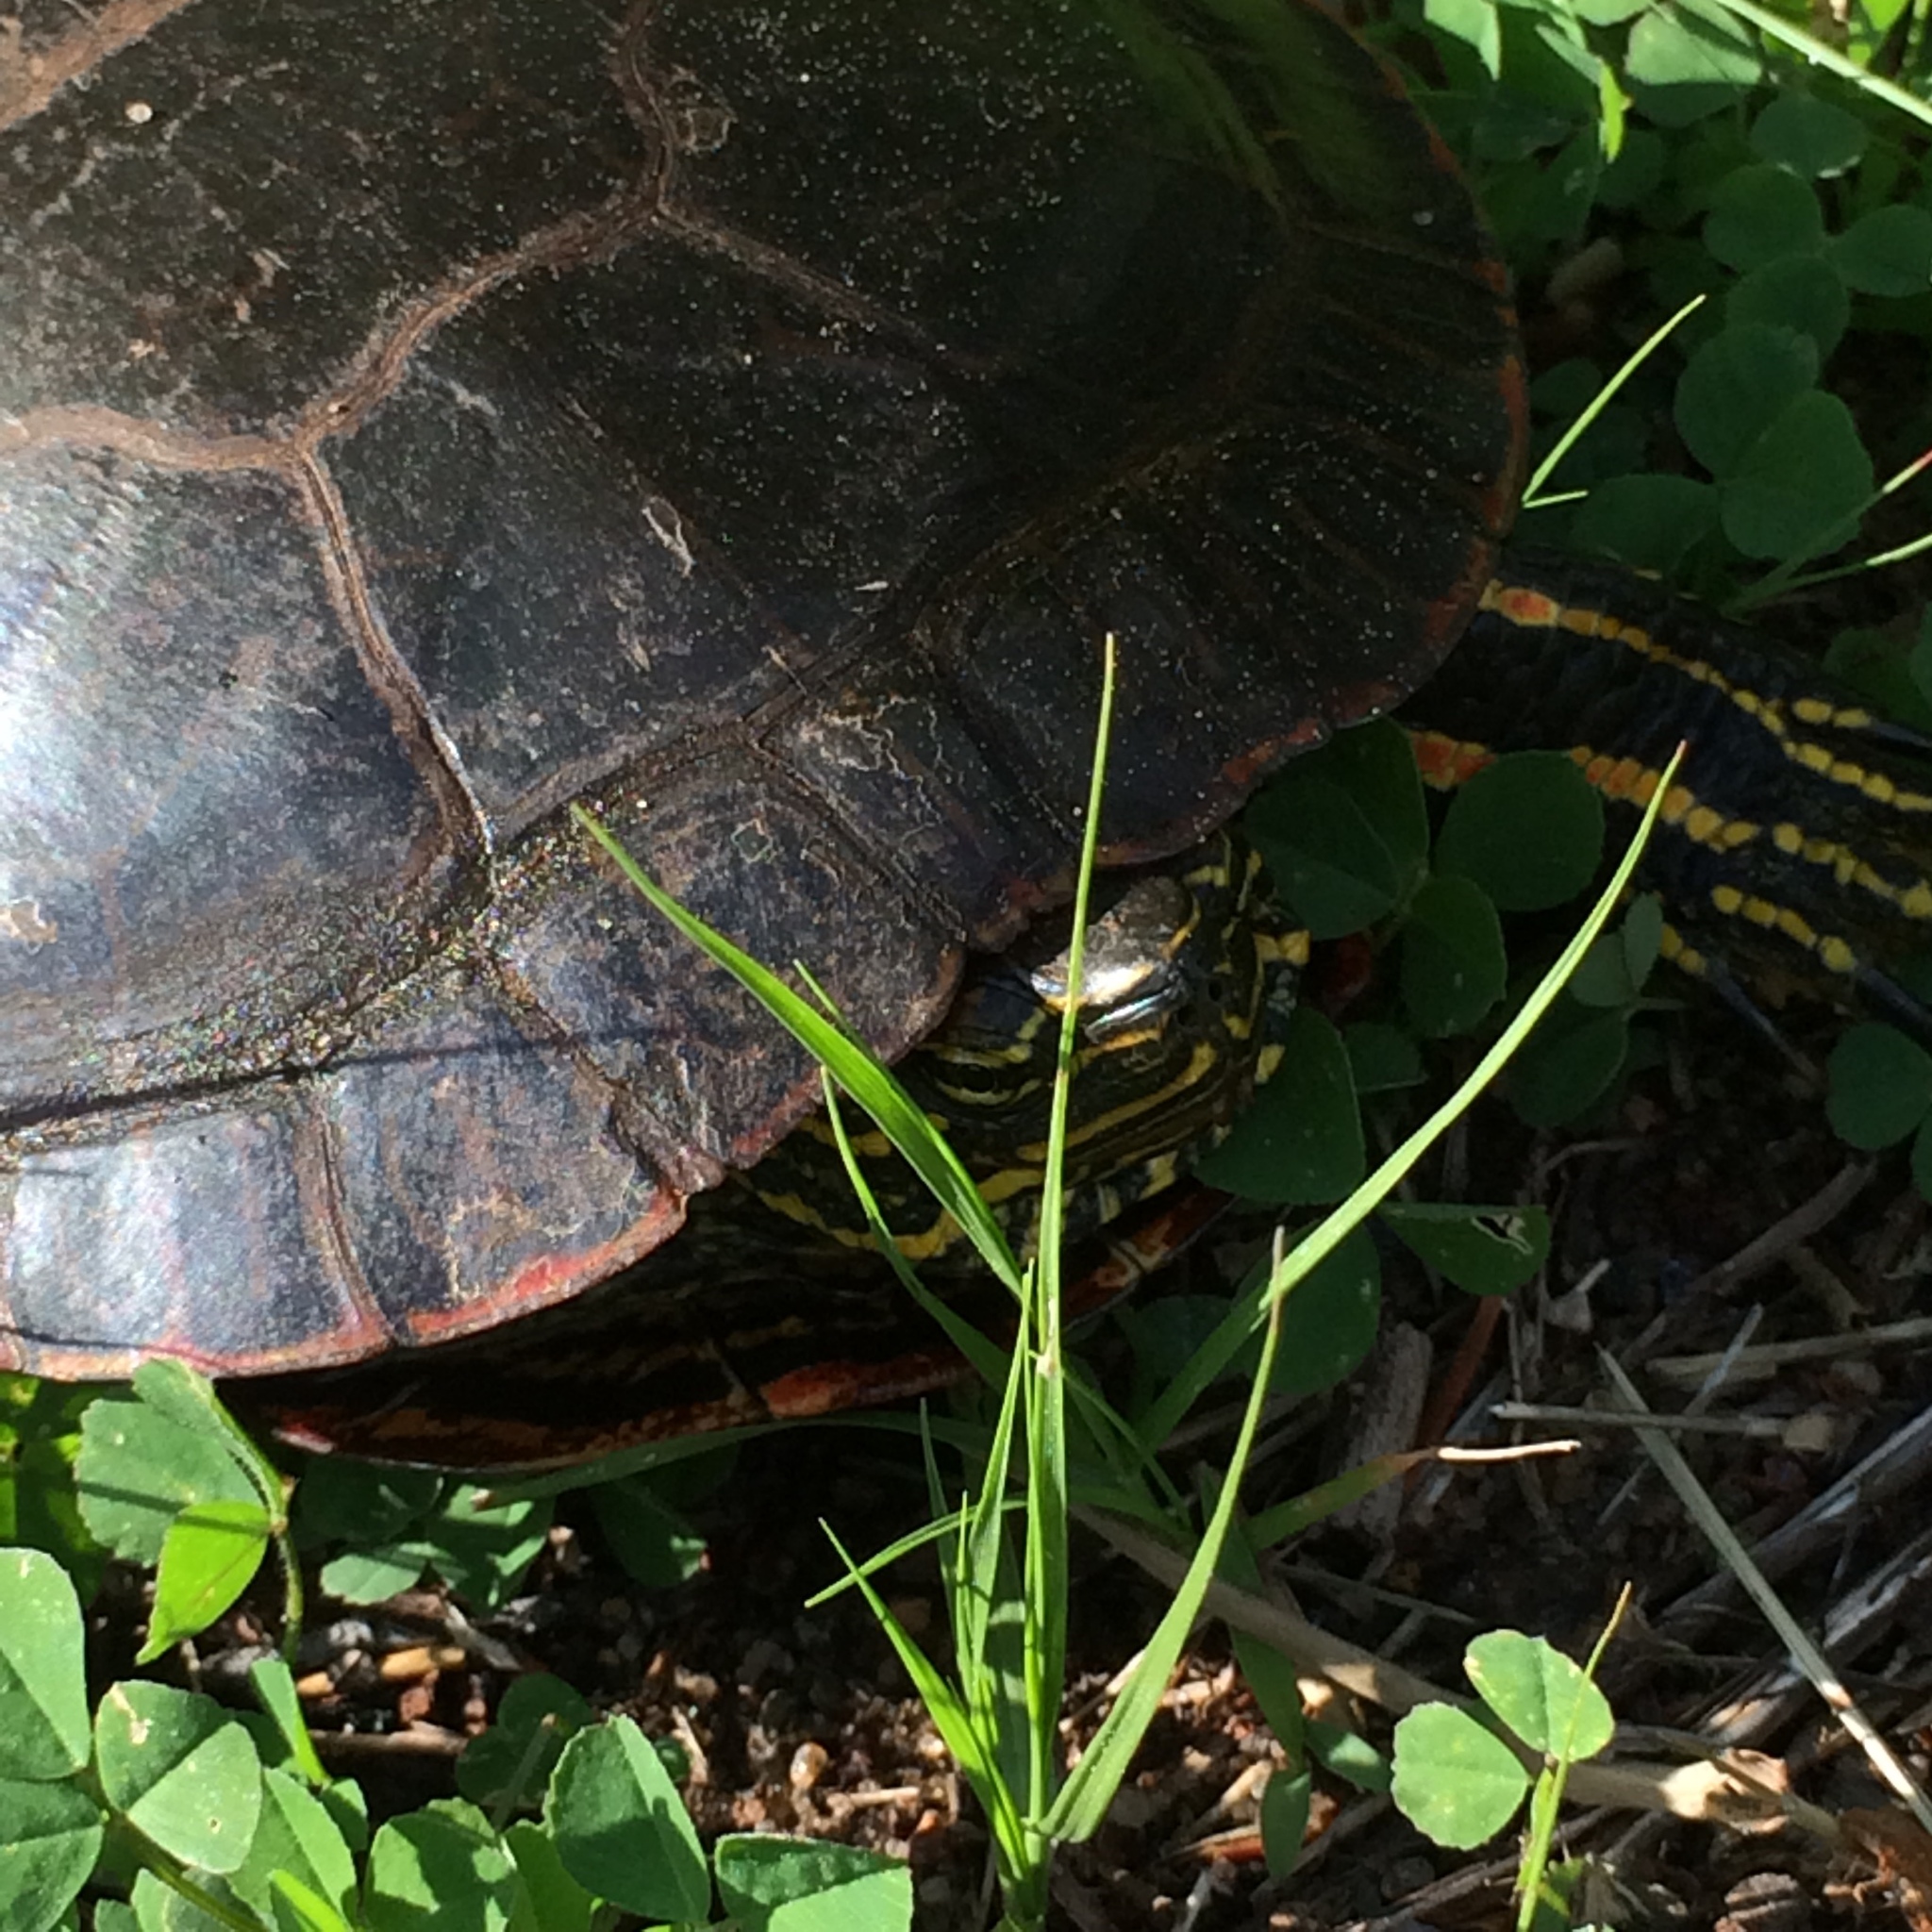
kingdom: Animalia
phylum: Chordata
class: Testudines
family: Emydidae
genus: Chrysemys
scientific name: Chrysemys picta
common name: Painted turtle
